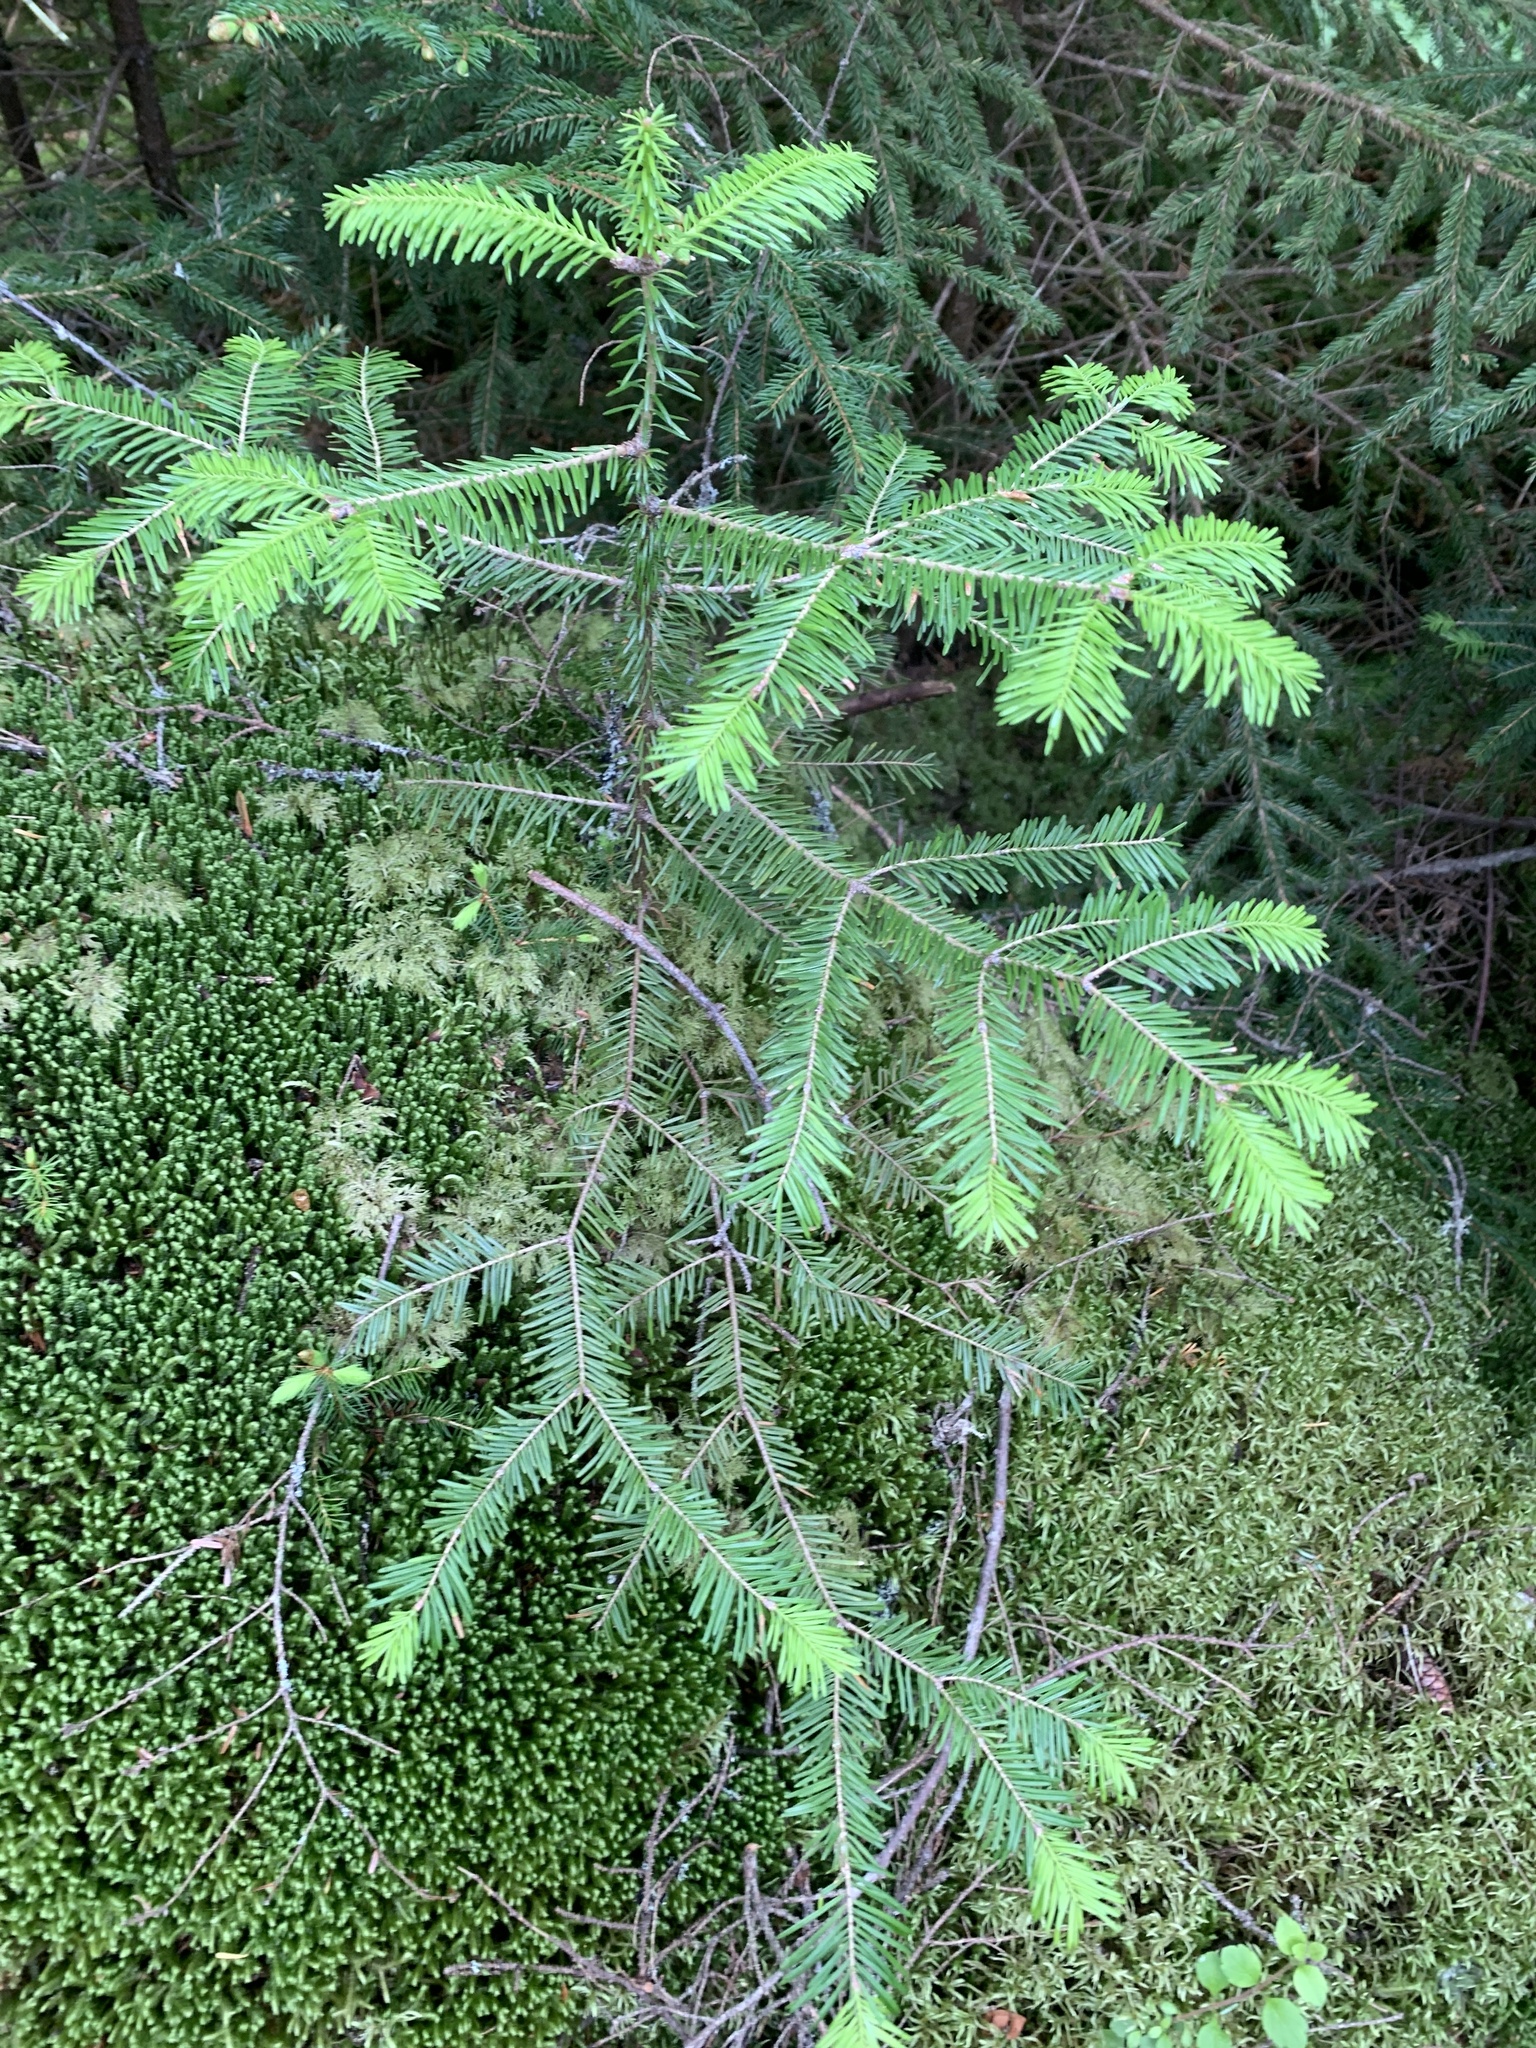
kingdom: Plantae
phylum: Tracheophyta
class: Pinopsida
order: Pinales
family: Pinaceae
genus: Abies
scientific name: Abies balsamea
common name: Balsam fir
